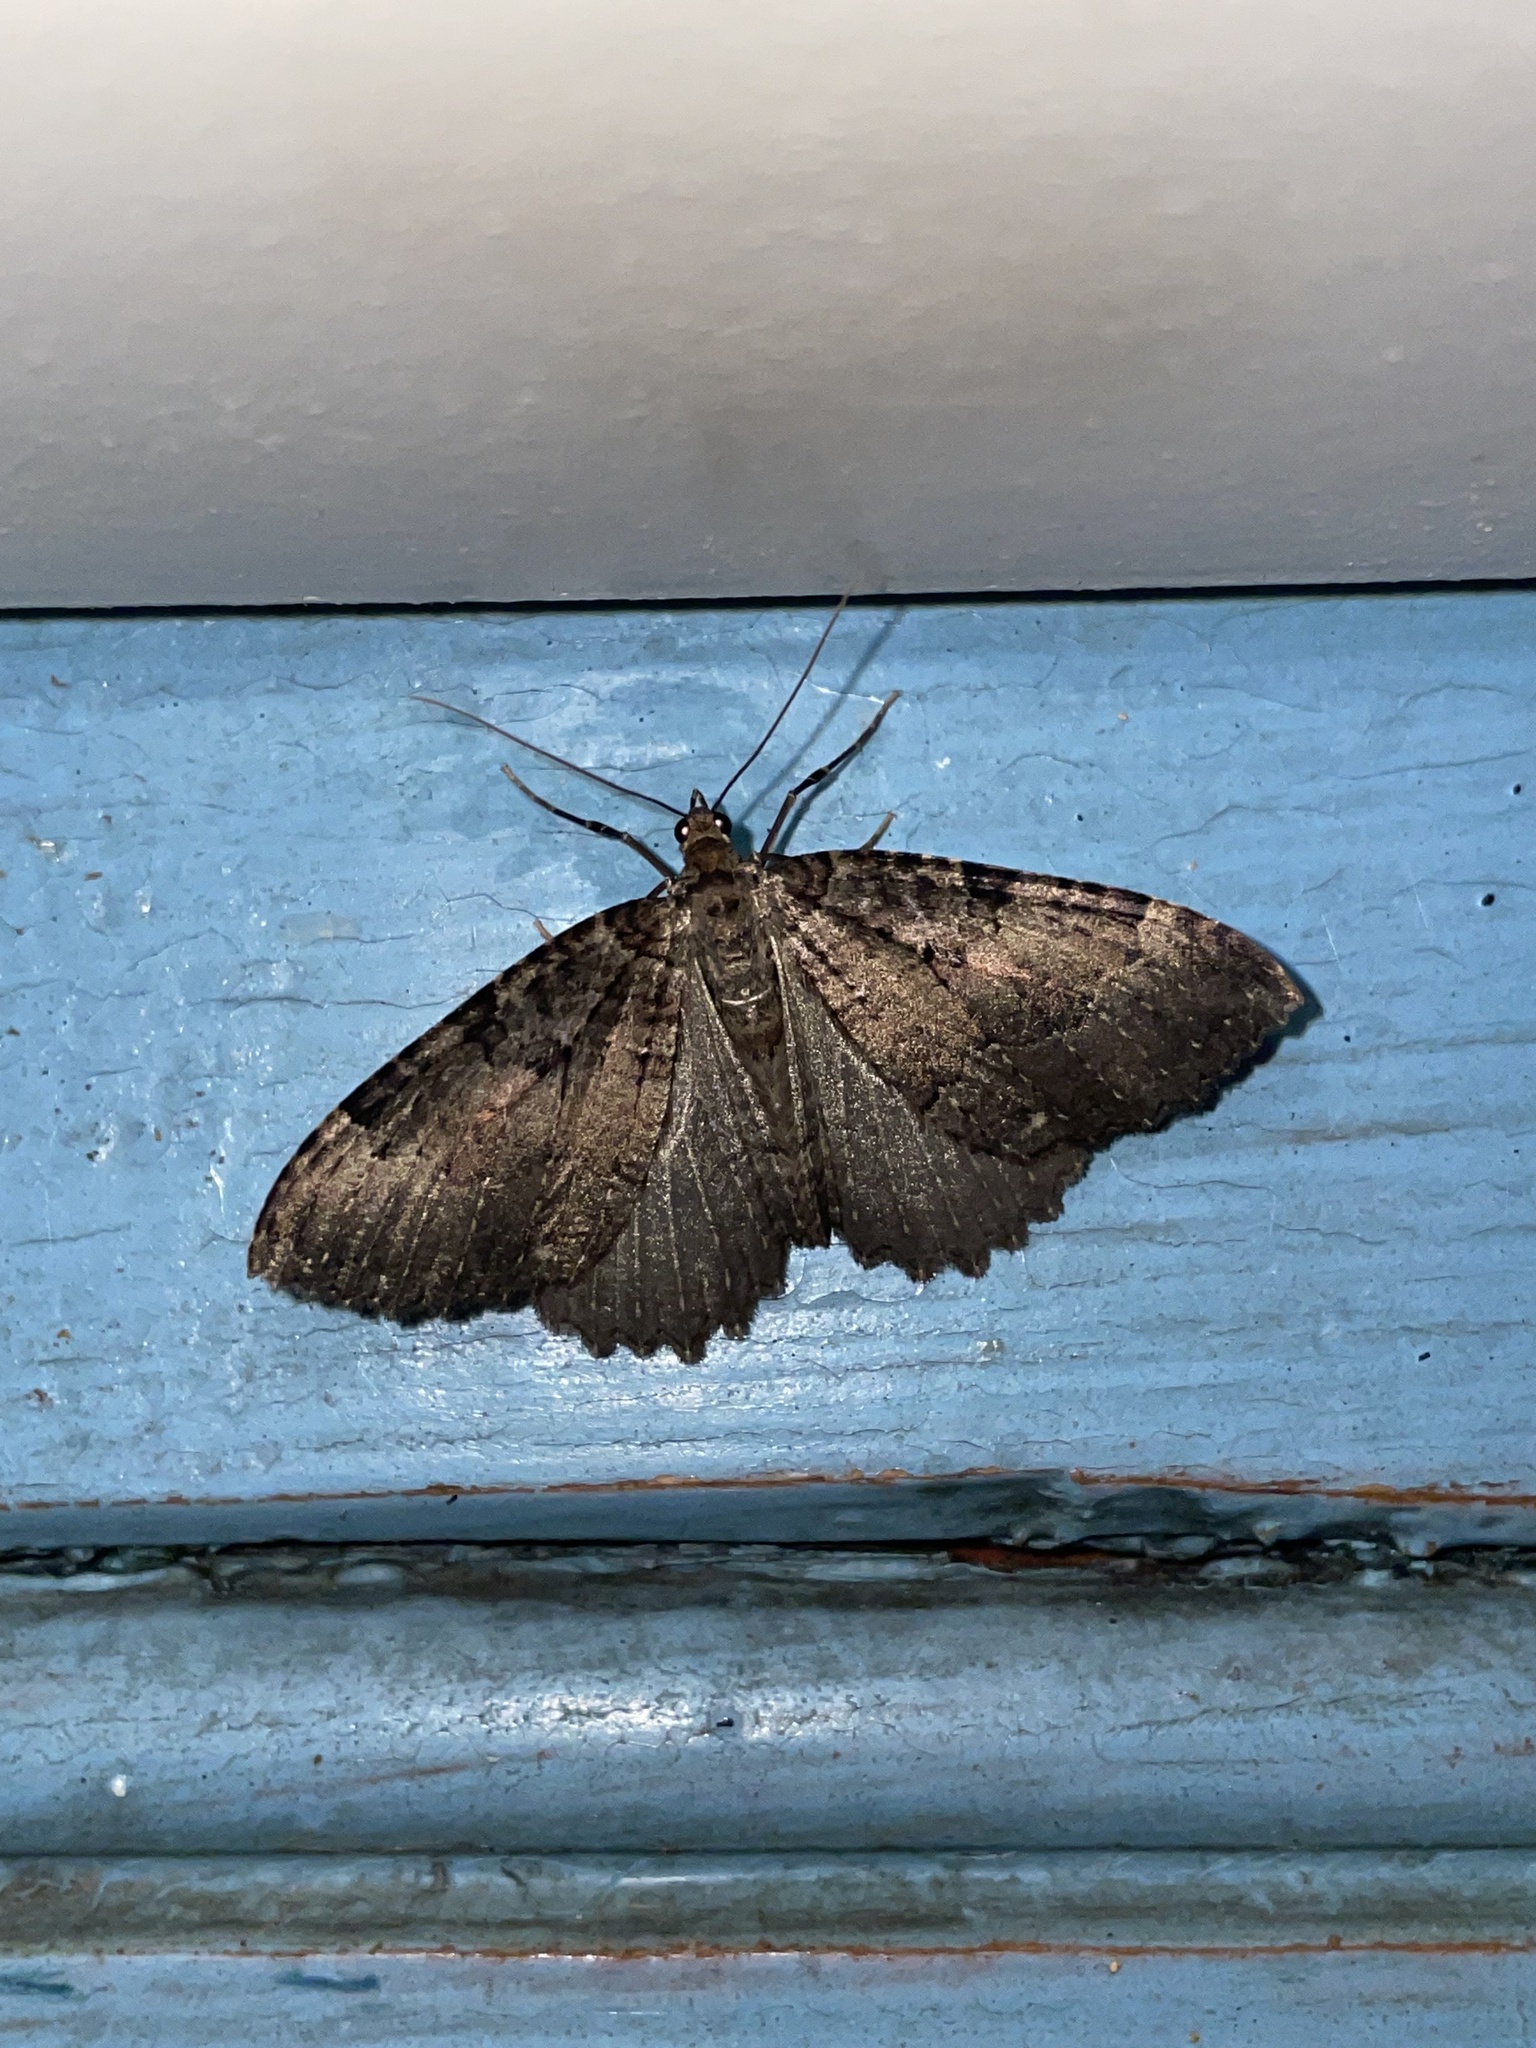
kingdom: Animalia
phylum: Arthropoda
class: Insecta
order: Lepidoptera
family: Geometridae
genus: Triphosa
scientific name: Triphosa dubitata
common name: Tissue
